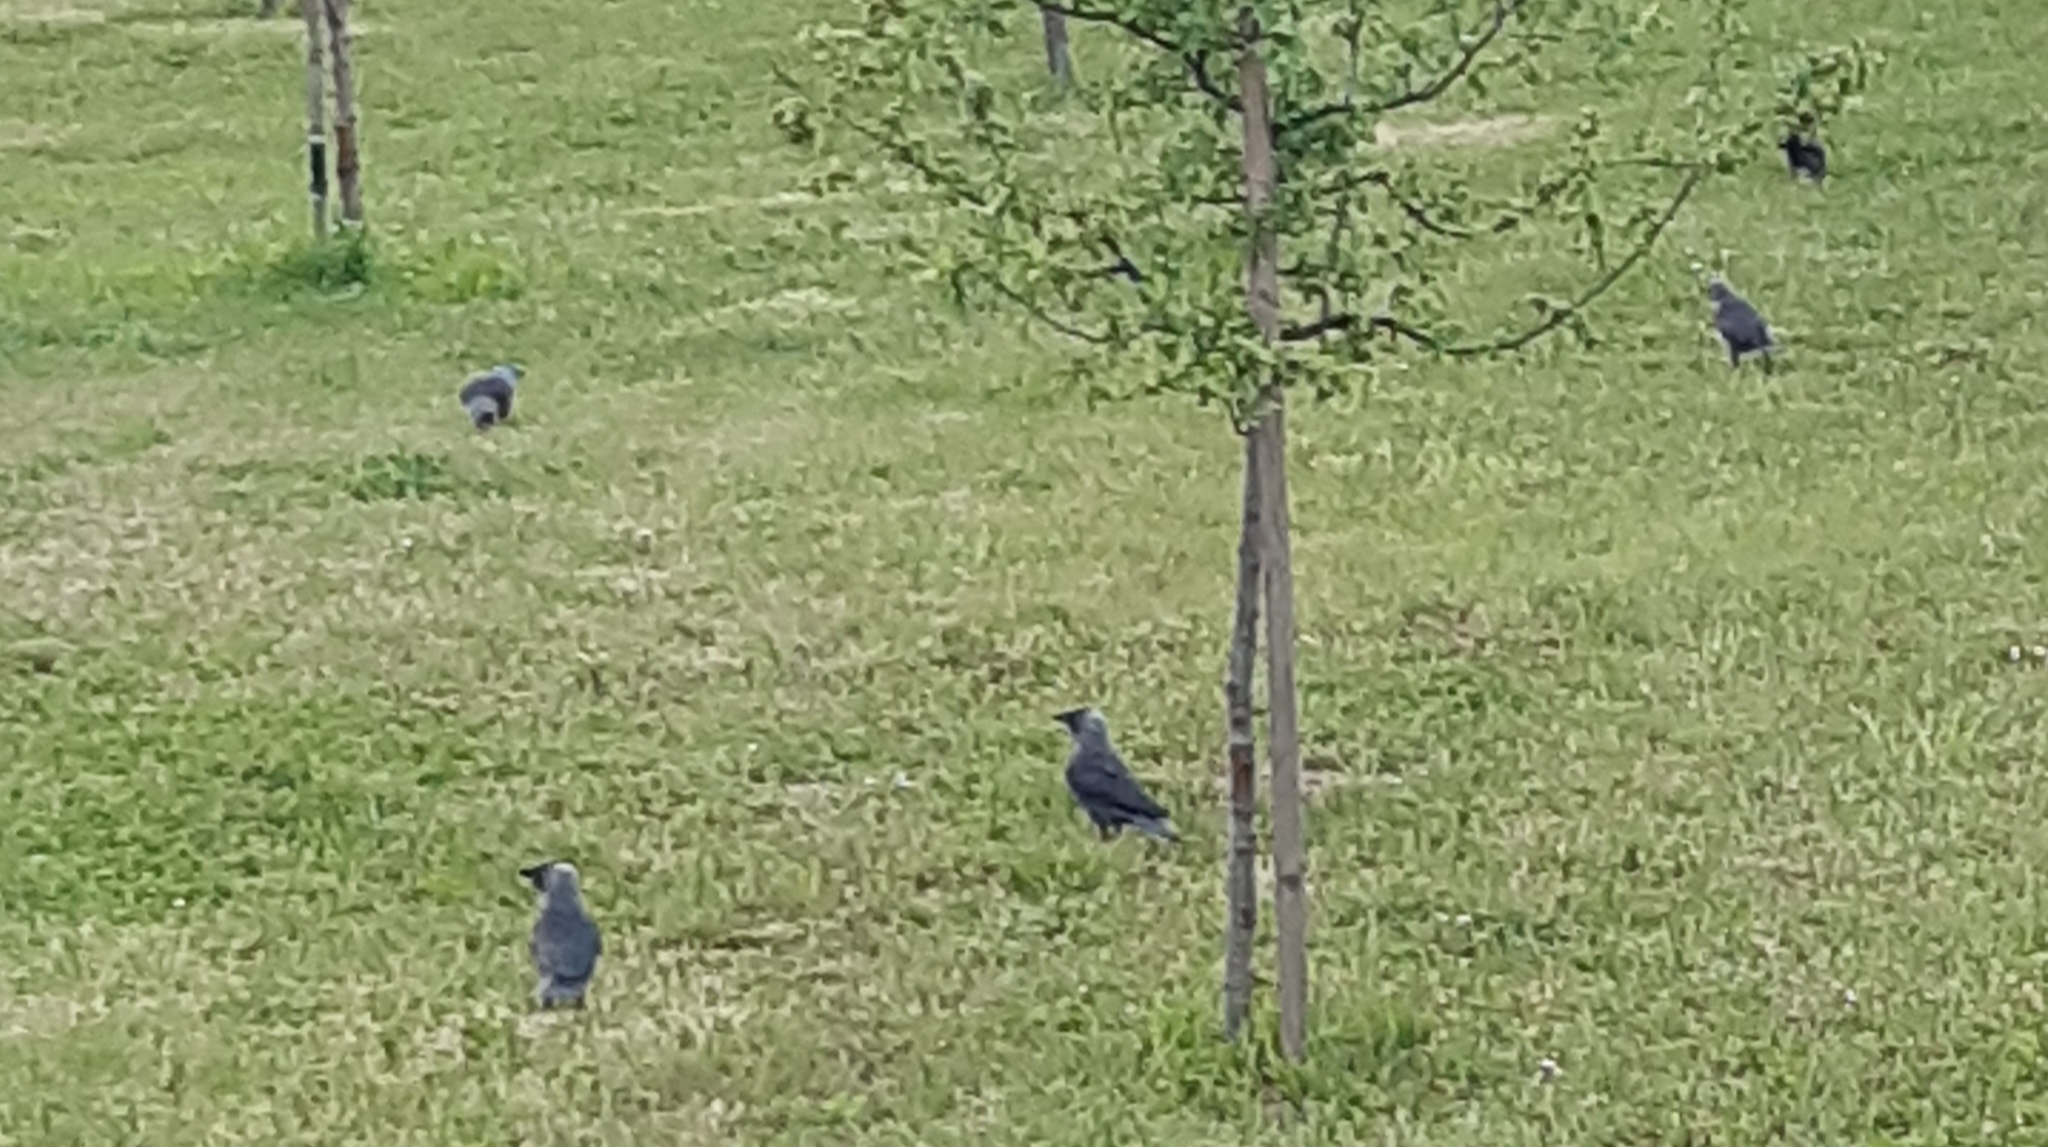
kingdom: Animalia
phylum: Chordata
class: Aves
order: Passeriformes
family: Corvidae
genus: Coloeus
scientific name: Coloeus monedula
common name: Western jackdaw
